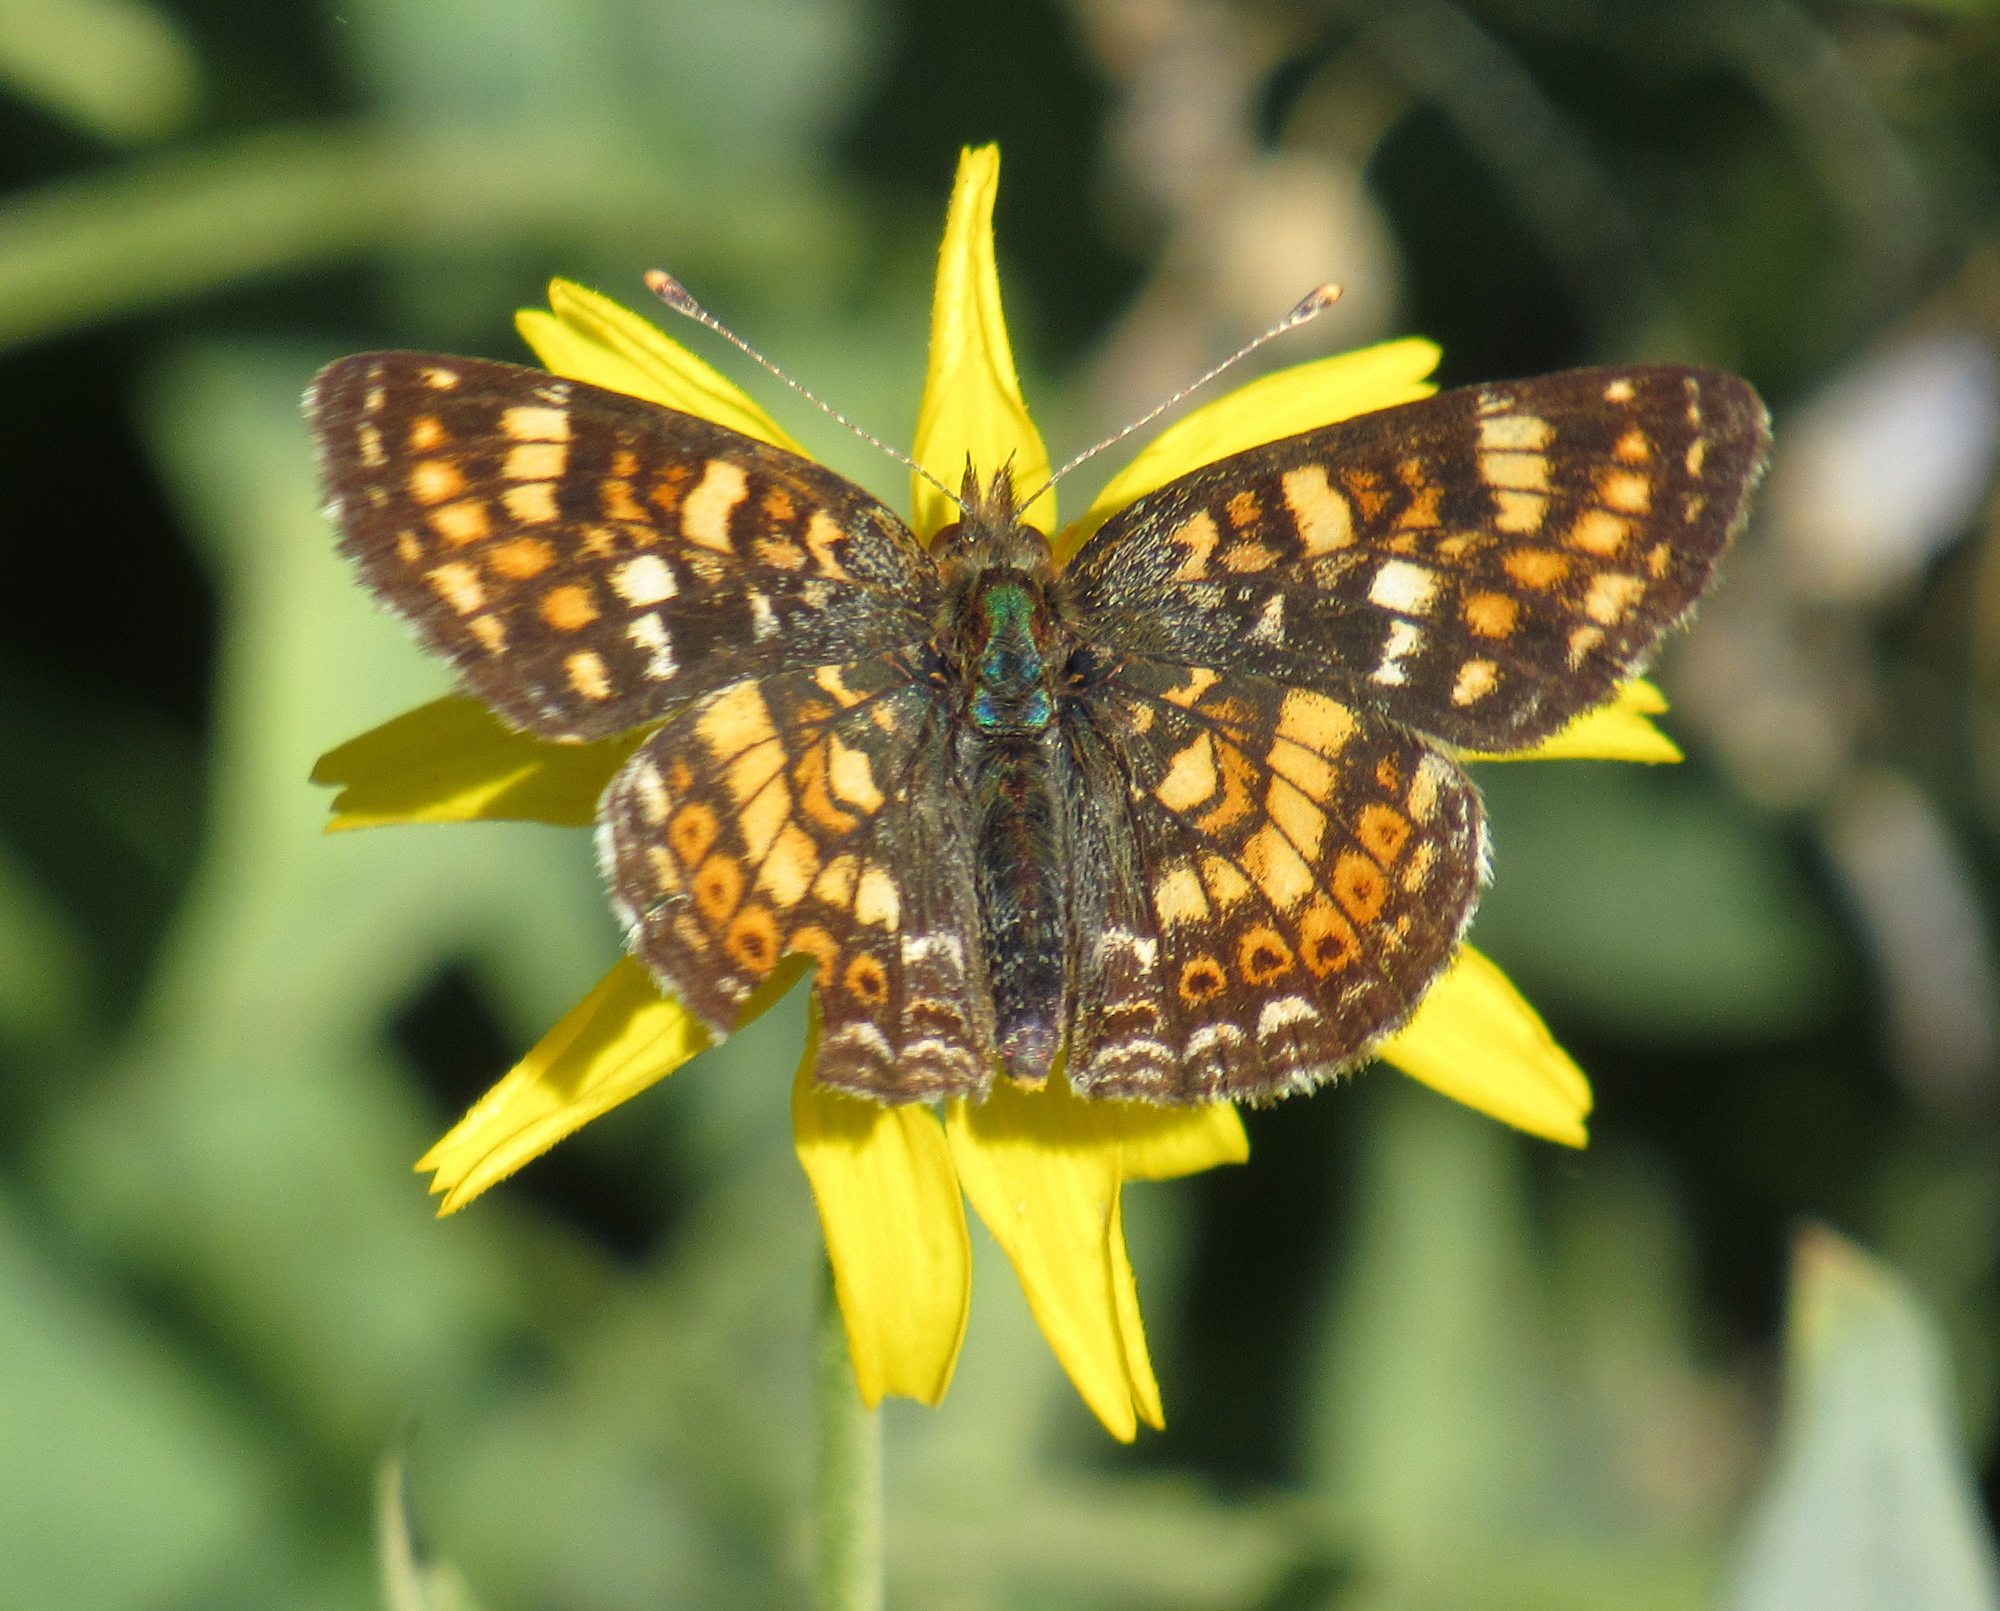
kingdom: Animalia
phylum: Arthropoda
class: Insecta
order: Lepidoptera
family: Nymphalidae
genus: Phyciodes
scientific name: Phyciodes tharos
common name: Pearl crescent
